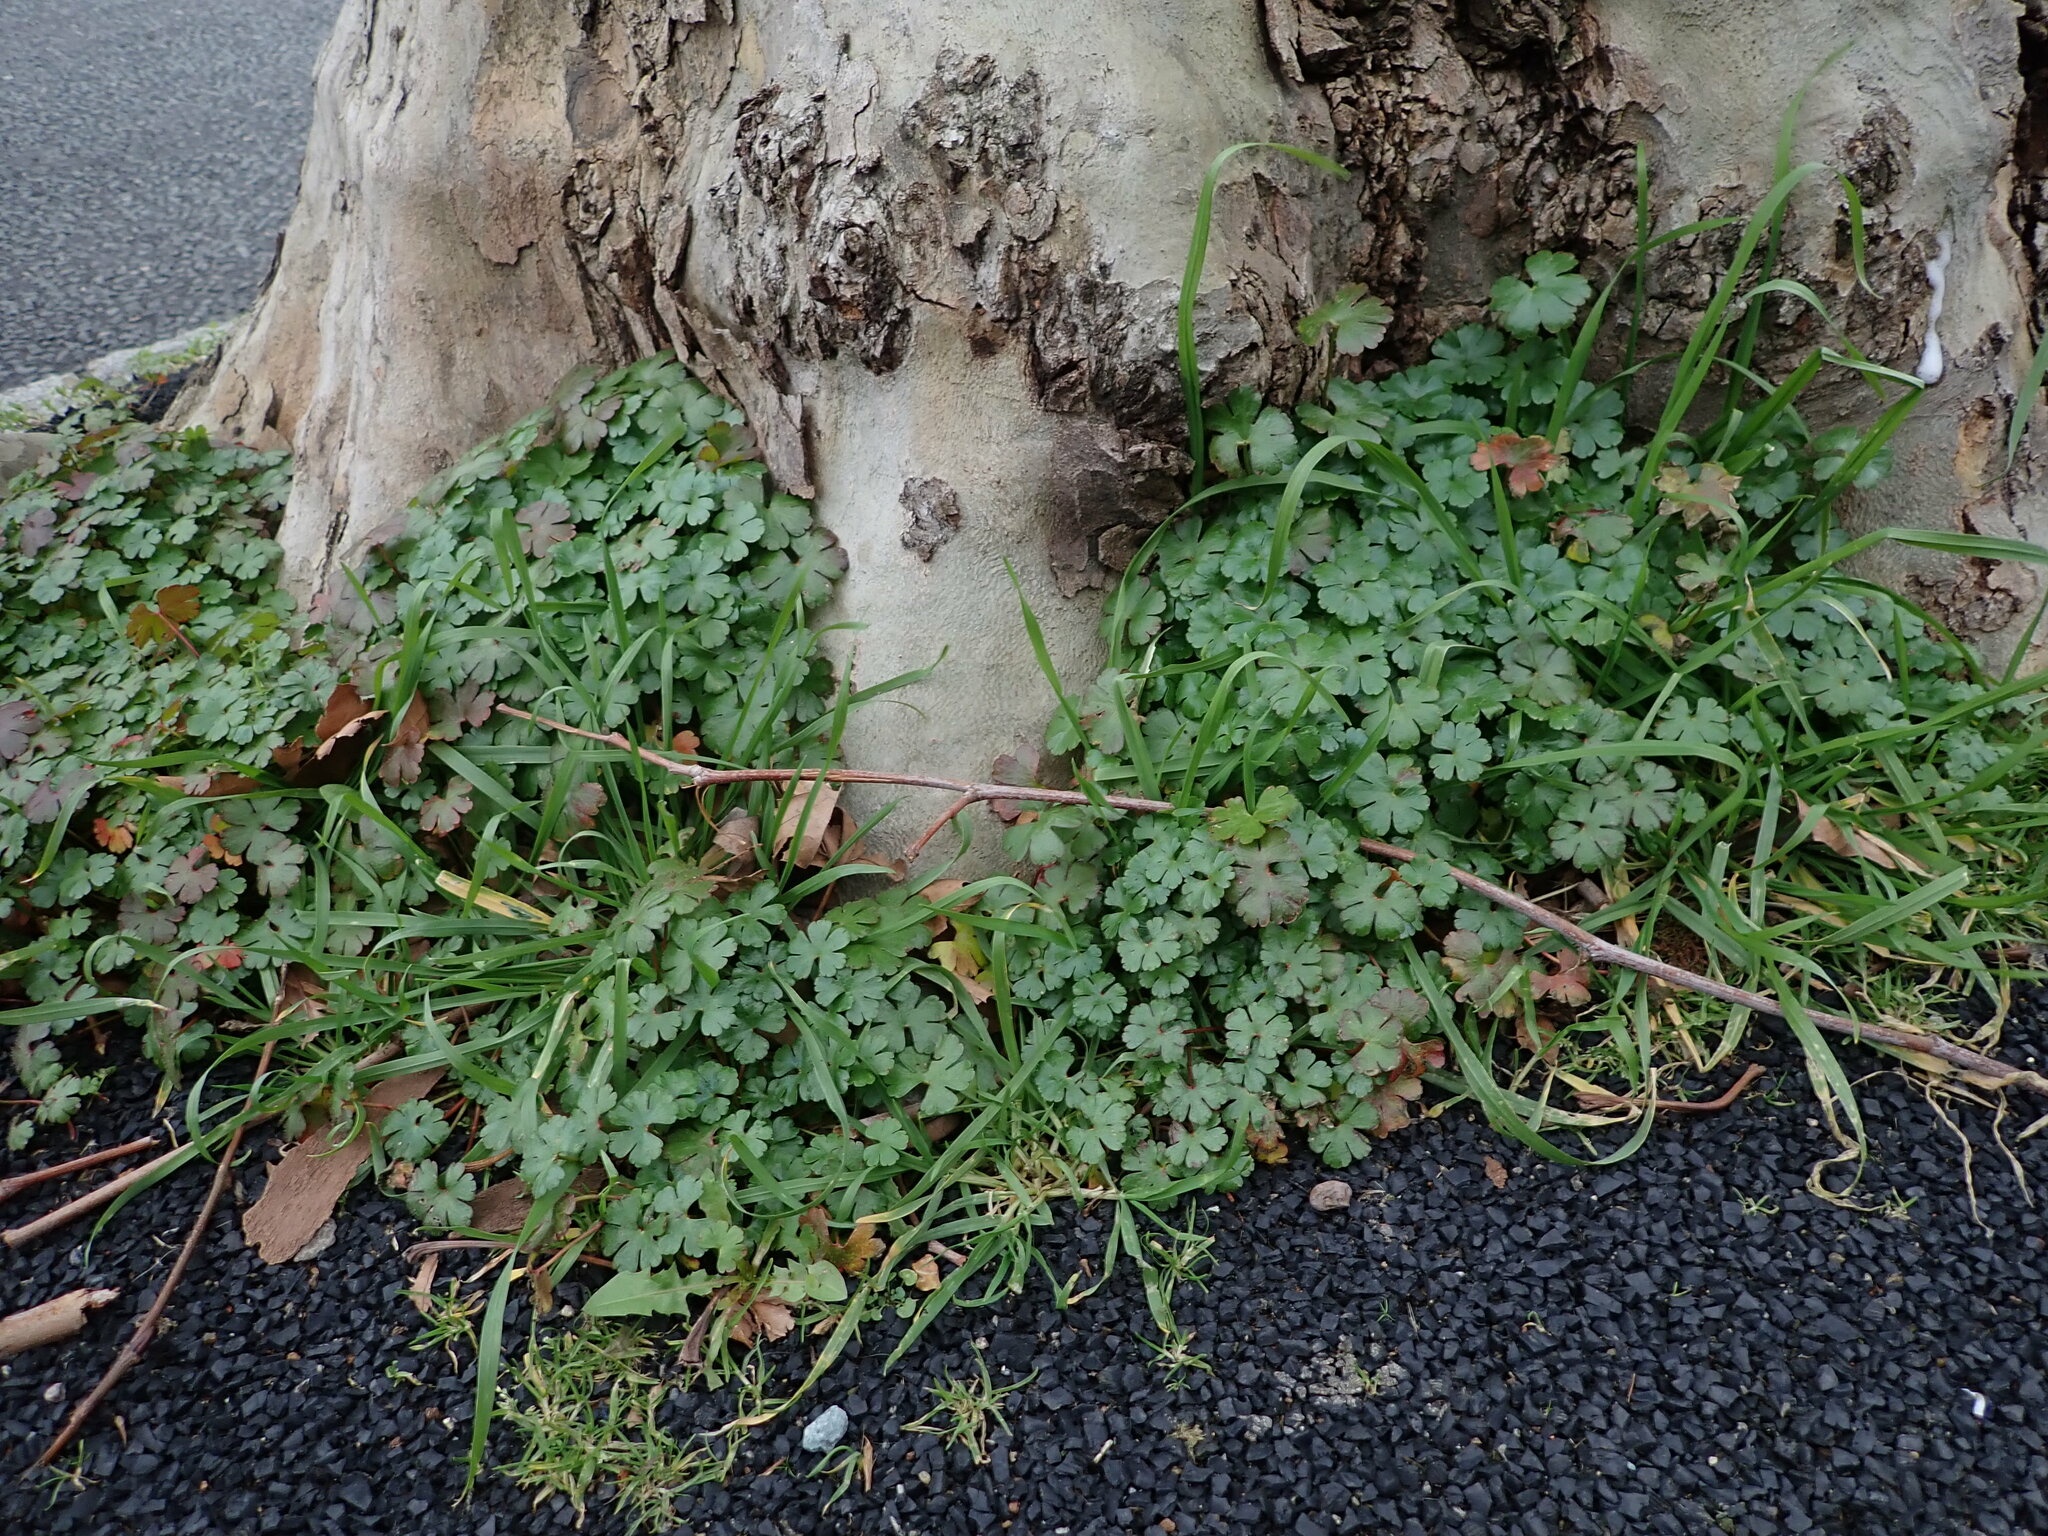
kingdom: Plantae
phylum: Tracheophyta
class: Magnoliopsida
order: Geraniales
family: Geraniaceae
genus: Geranium
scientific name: Geranium lucidum
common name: Shining crane's-bill
